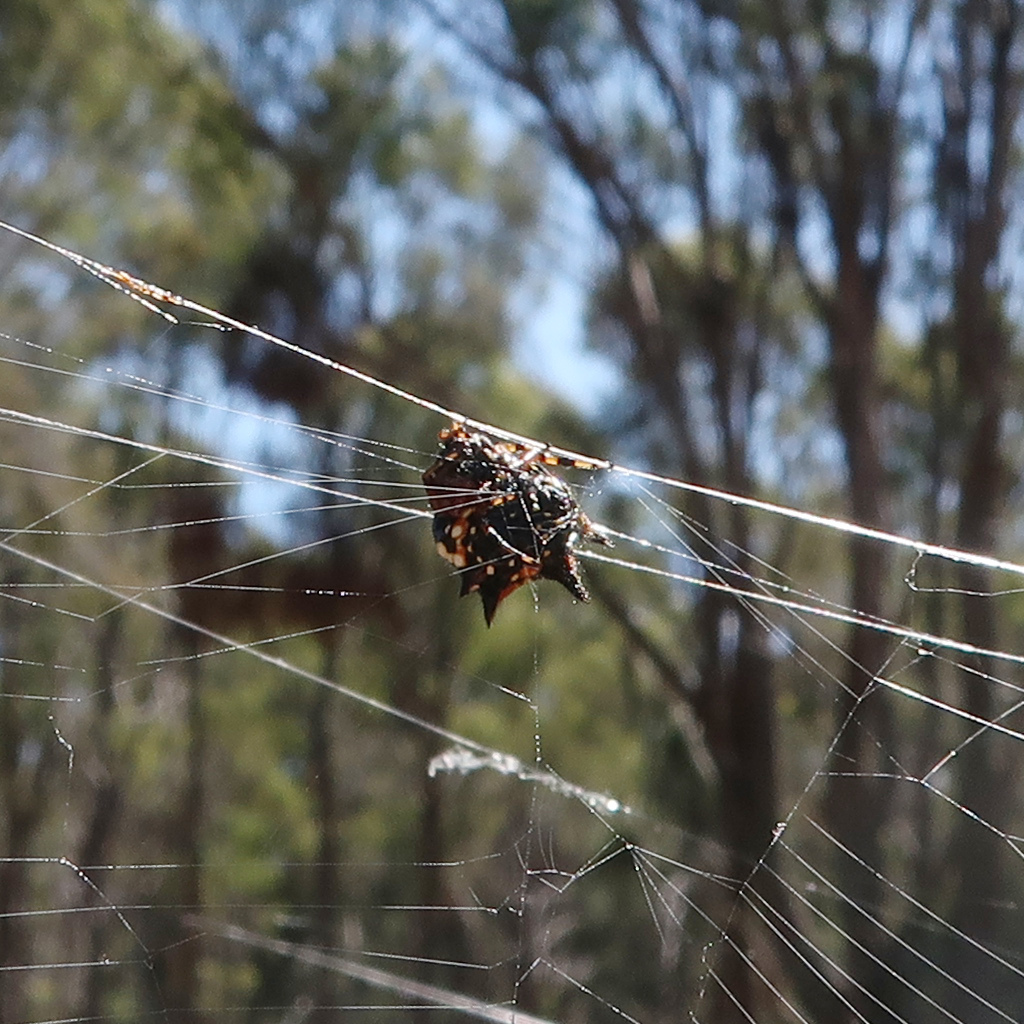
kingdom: Animalia
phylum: Arthropoda
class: Arachnida
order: Araneae
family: Araneidae
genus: Austracantha
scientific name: Austracantha minax
